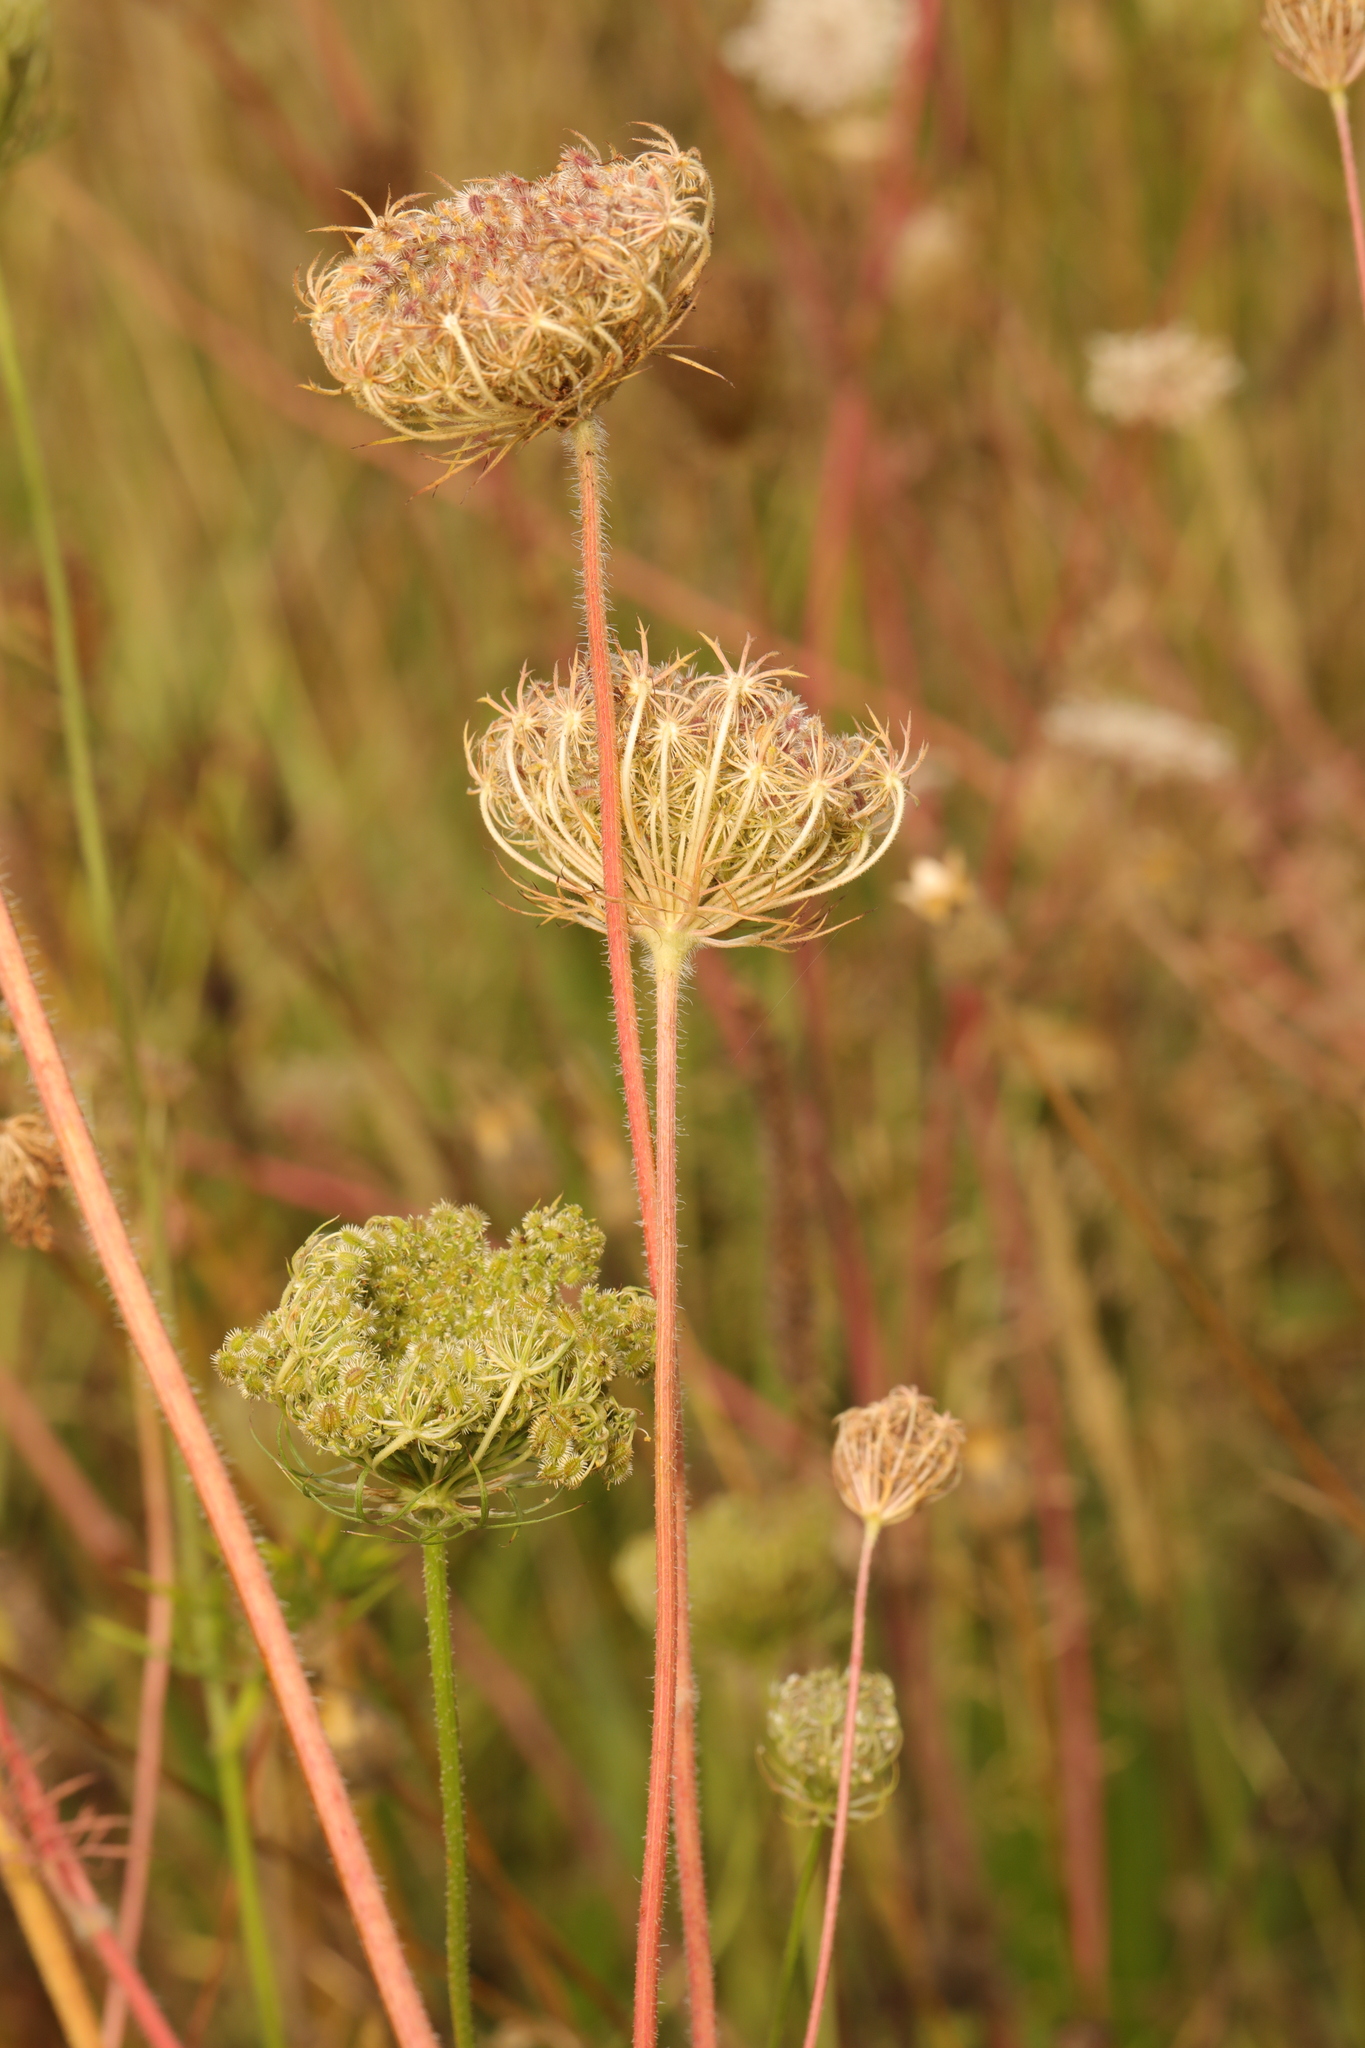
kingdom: Plantae
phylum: Tracheophyta
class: Magnoliopsida
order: Apiales
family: Apiaceae
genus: Daucus
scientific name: Daucus carota
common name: Wild carrot
